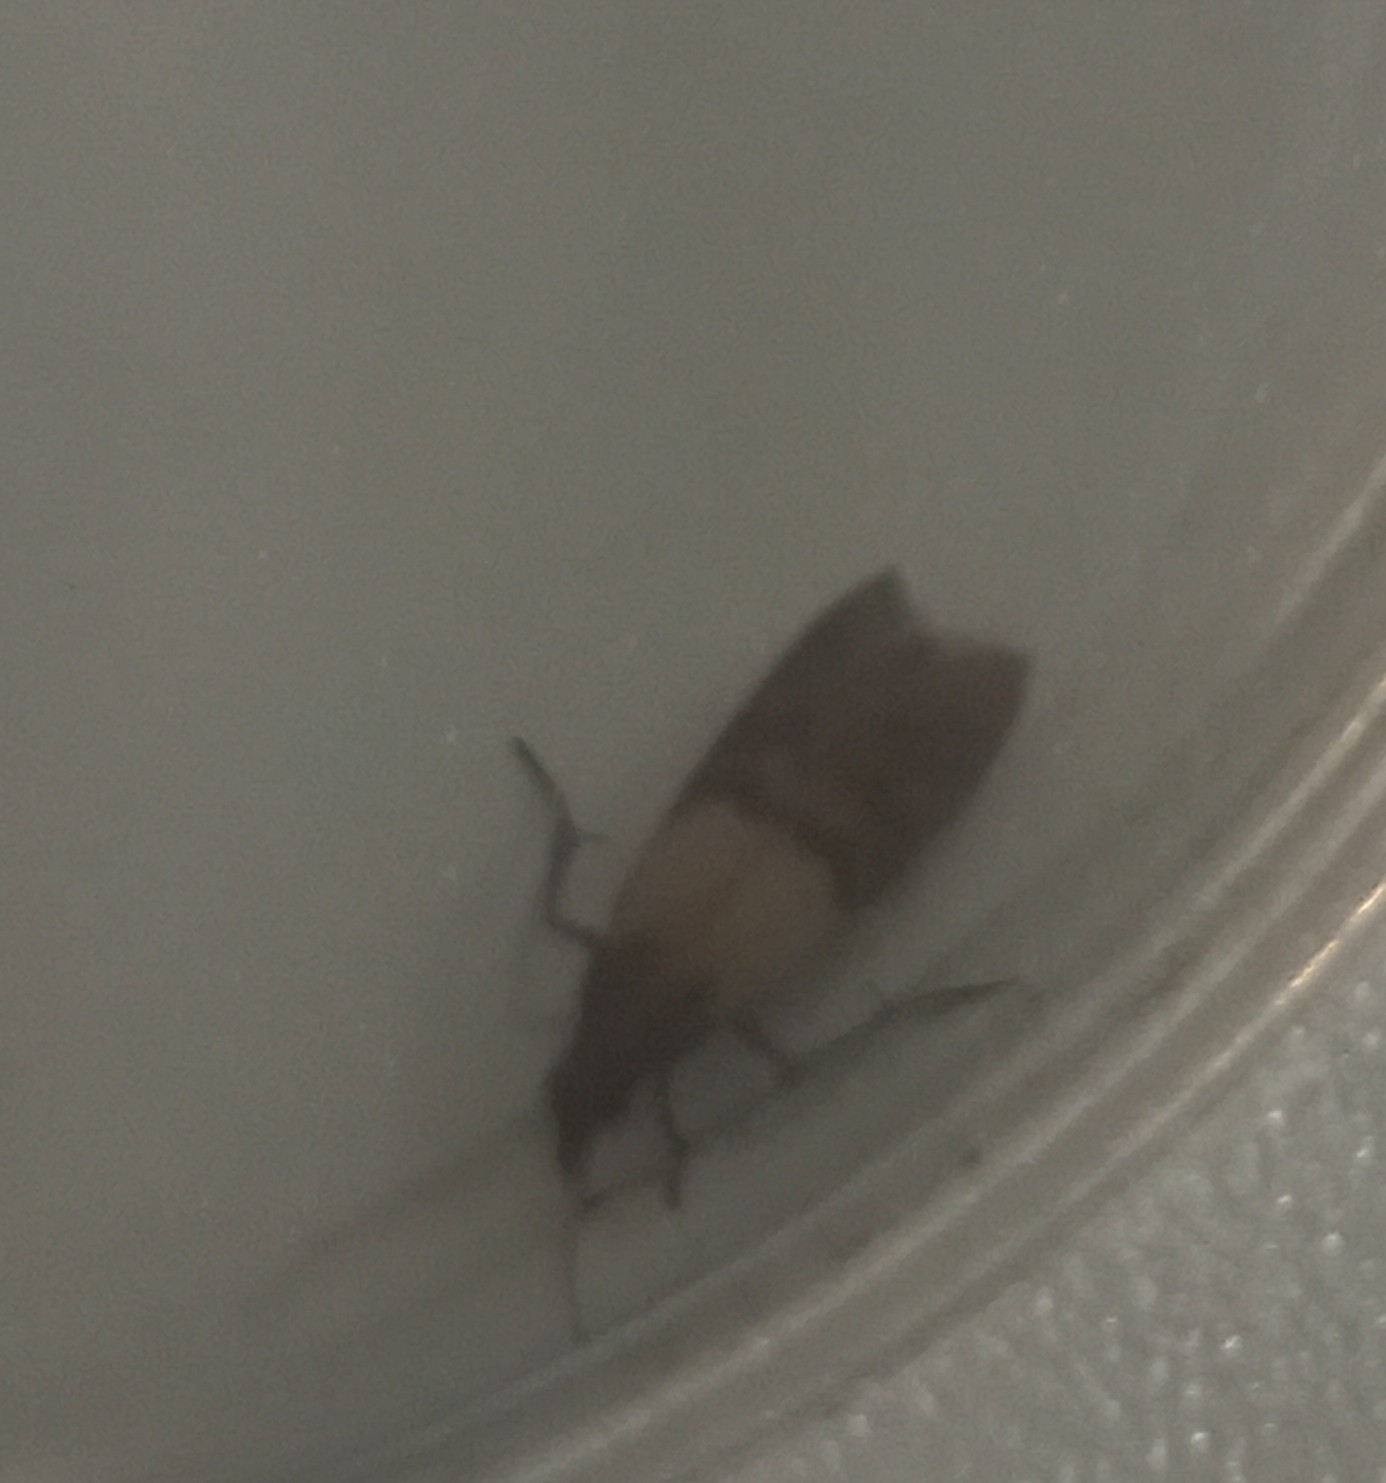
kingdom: Animalia
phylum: Arthropoda
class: Insecta
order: Lepidoptera
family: Pyralidae
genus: Plodia
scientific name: Plodia interpunctella
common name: Indian meal moth
